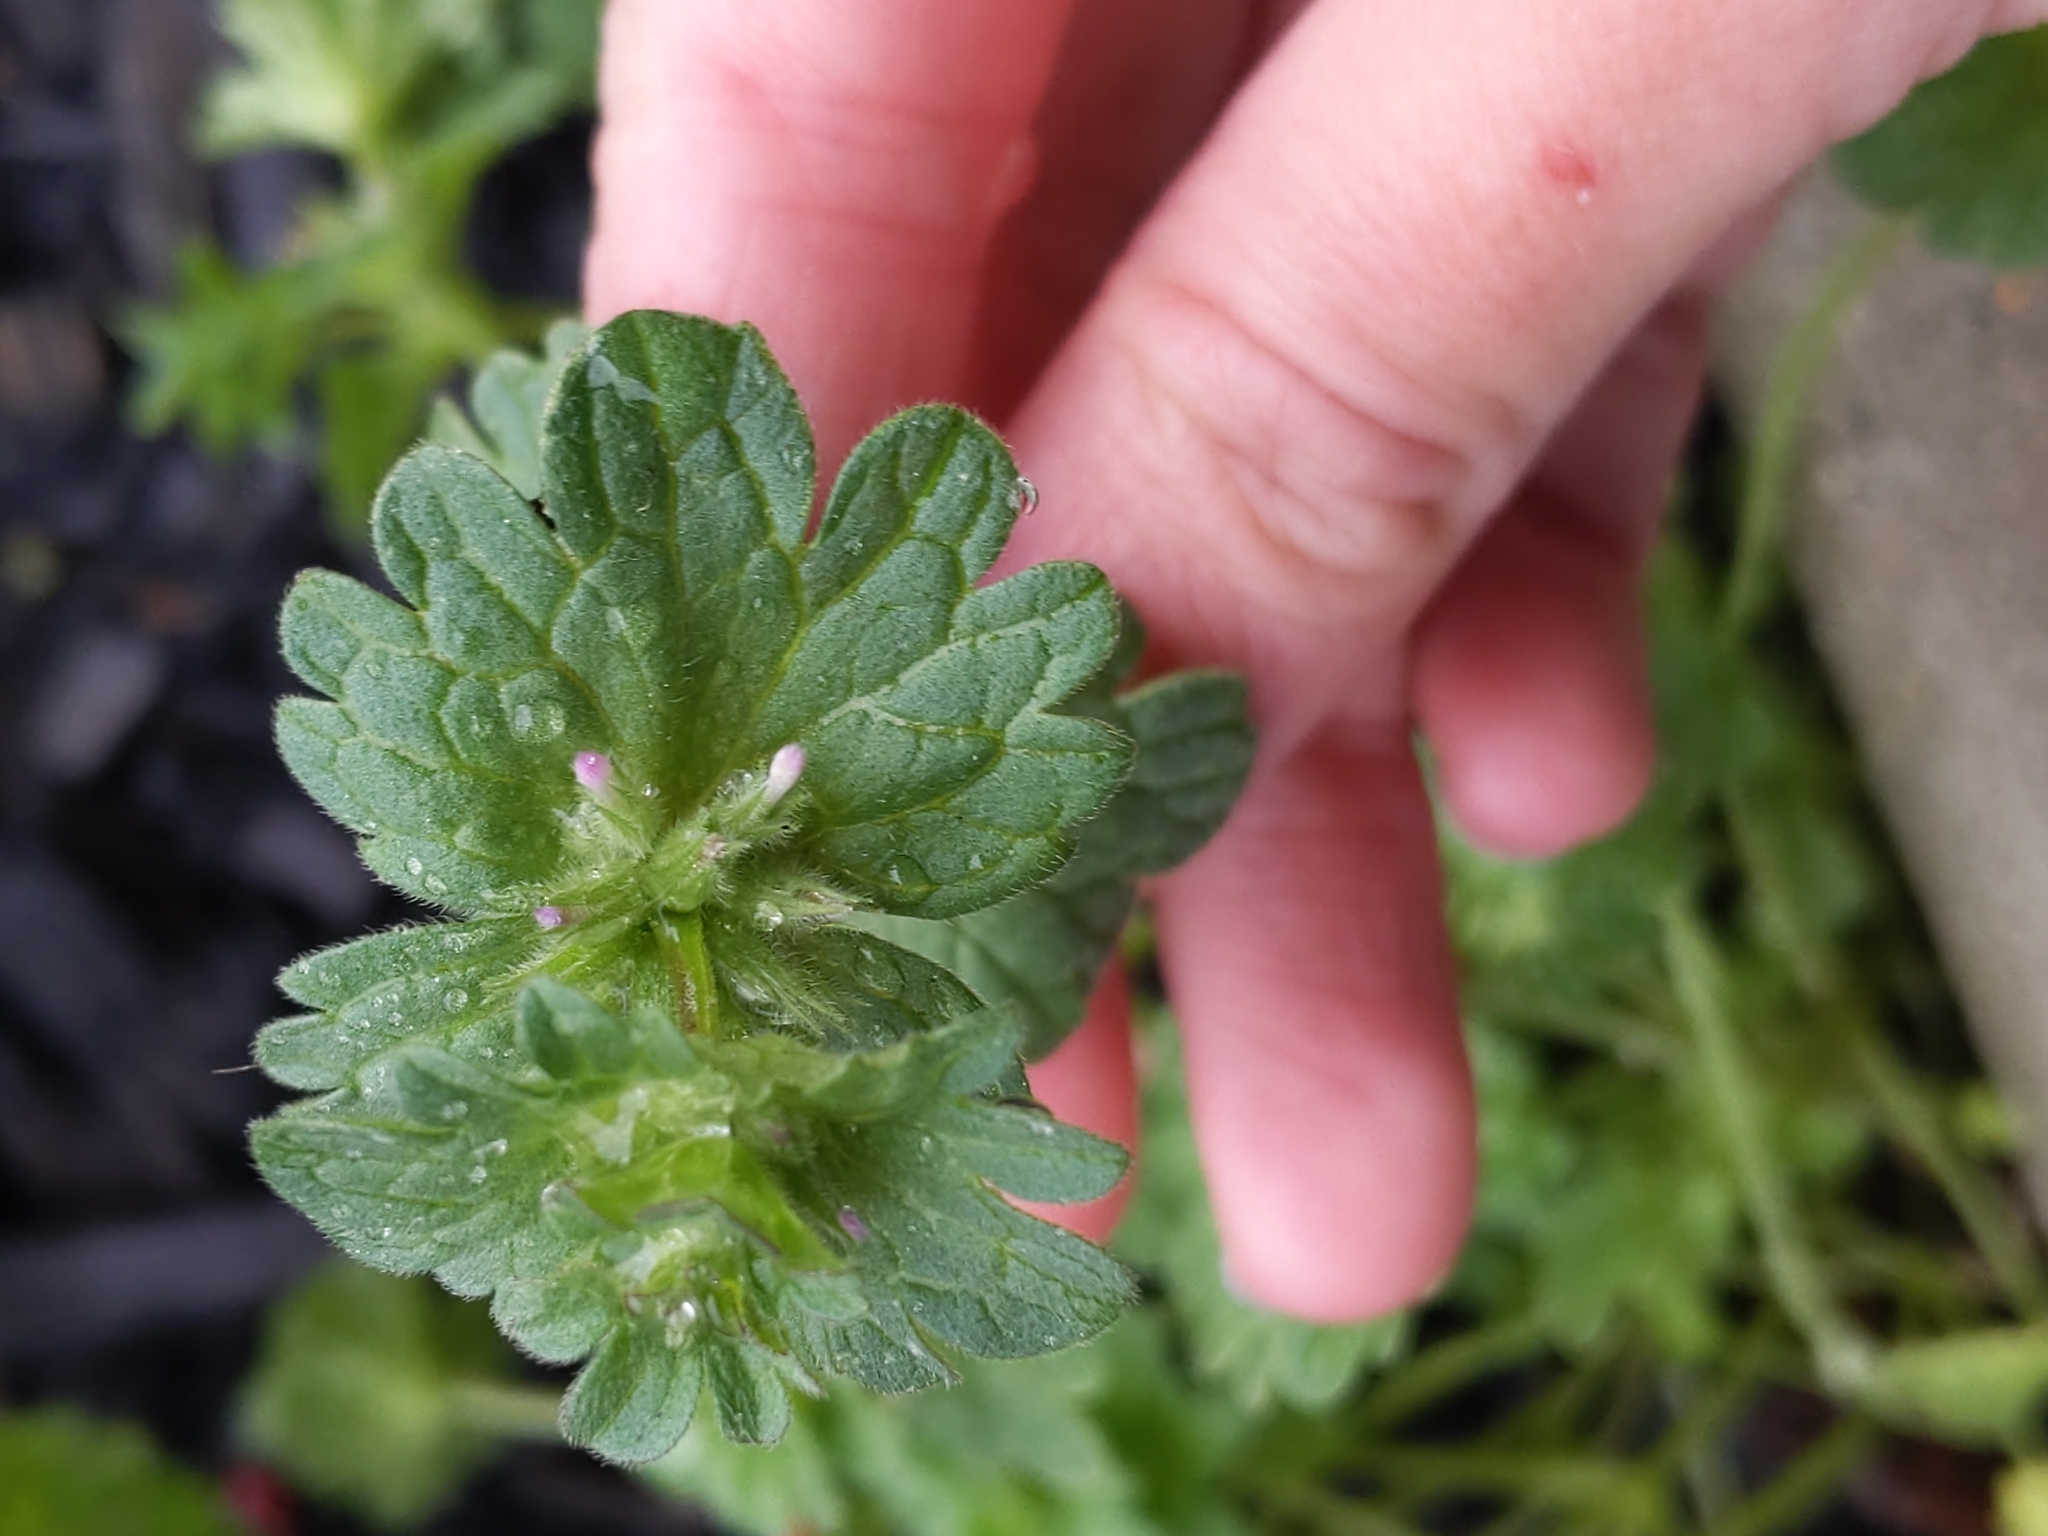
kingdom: Plantae
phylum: Tracheophyta
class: Magnoliopsida
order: Lamiales
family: Lamiaceae
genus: Lamium
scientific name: Lamium amplexicaule
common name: Henbit dead-nettle
